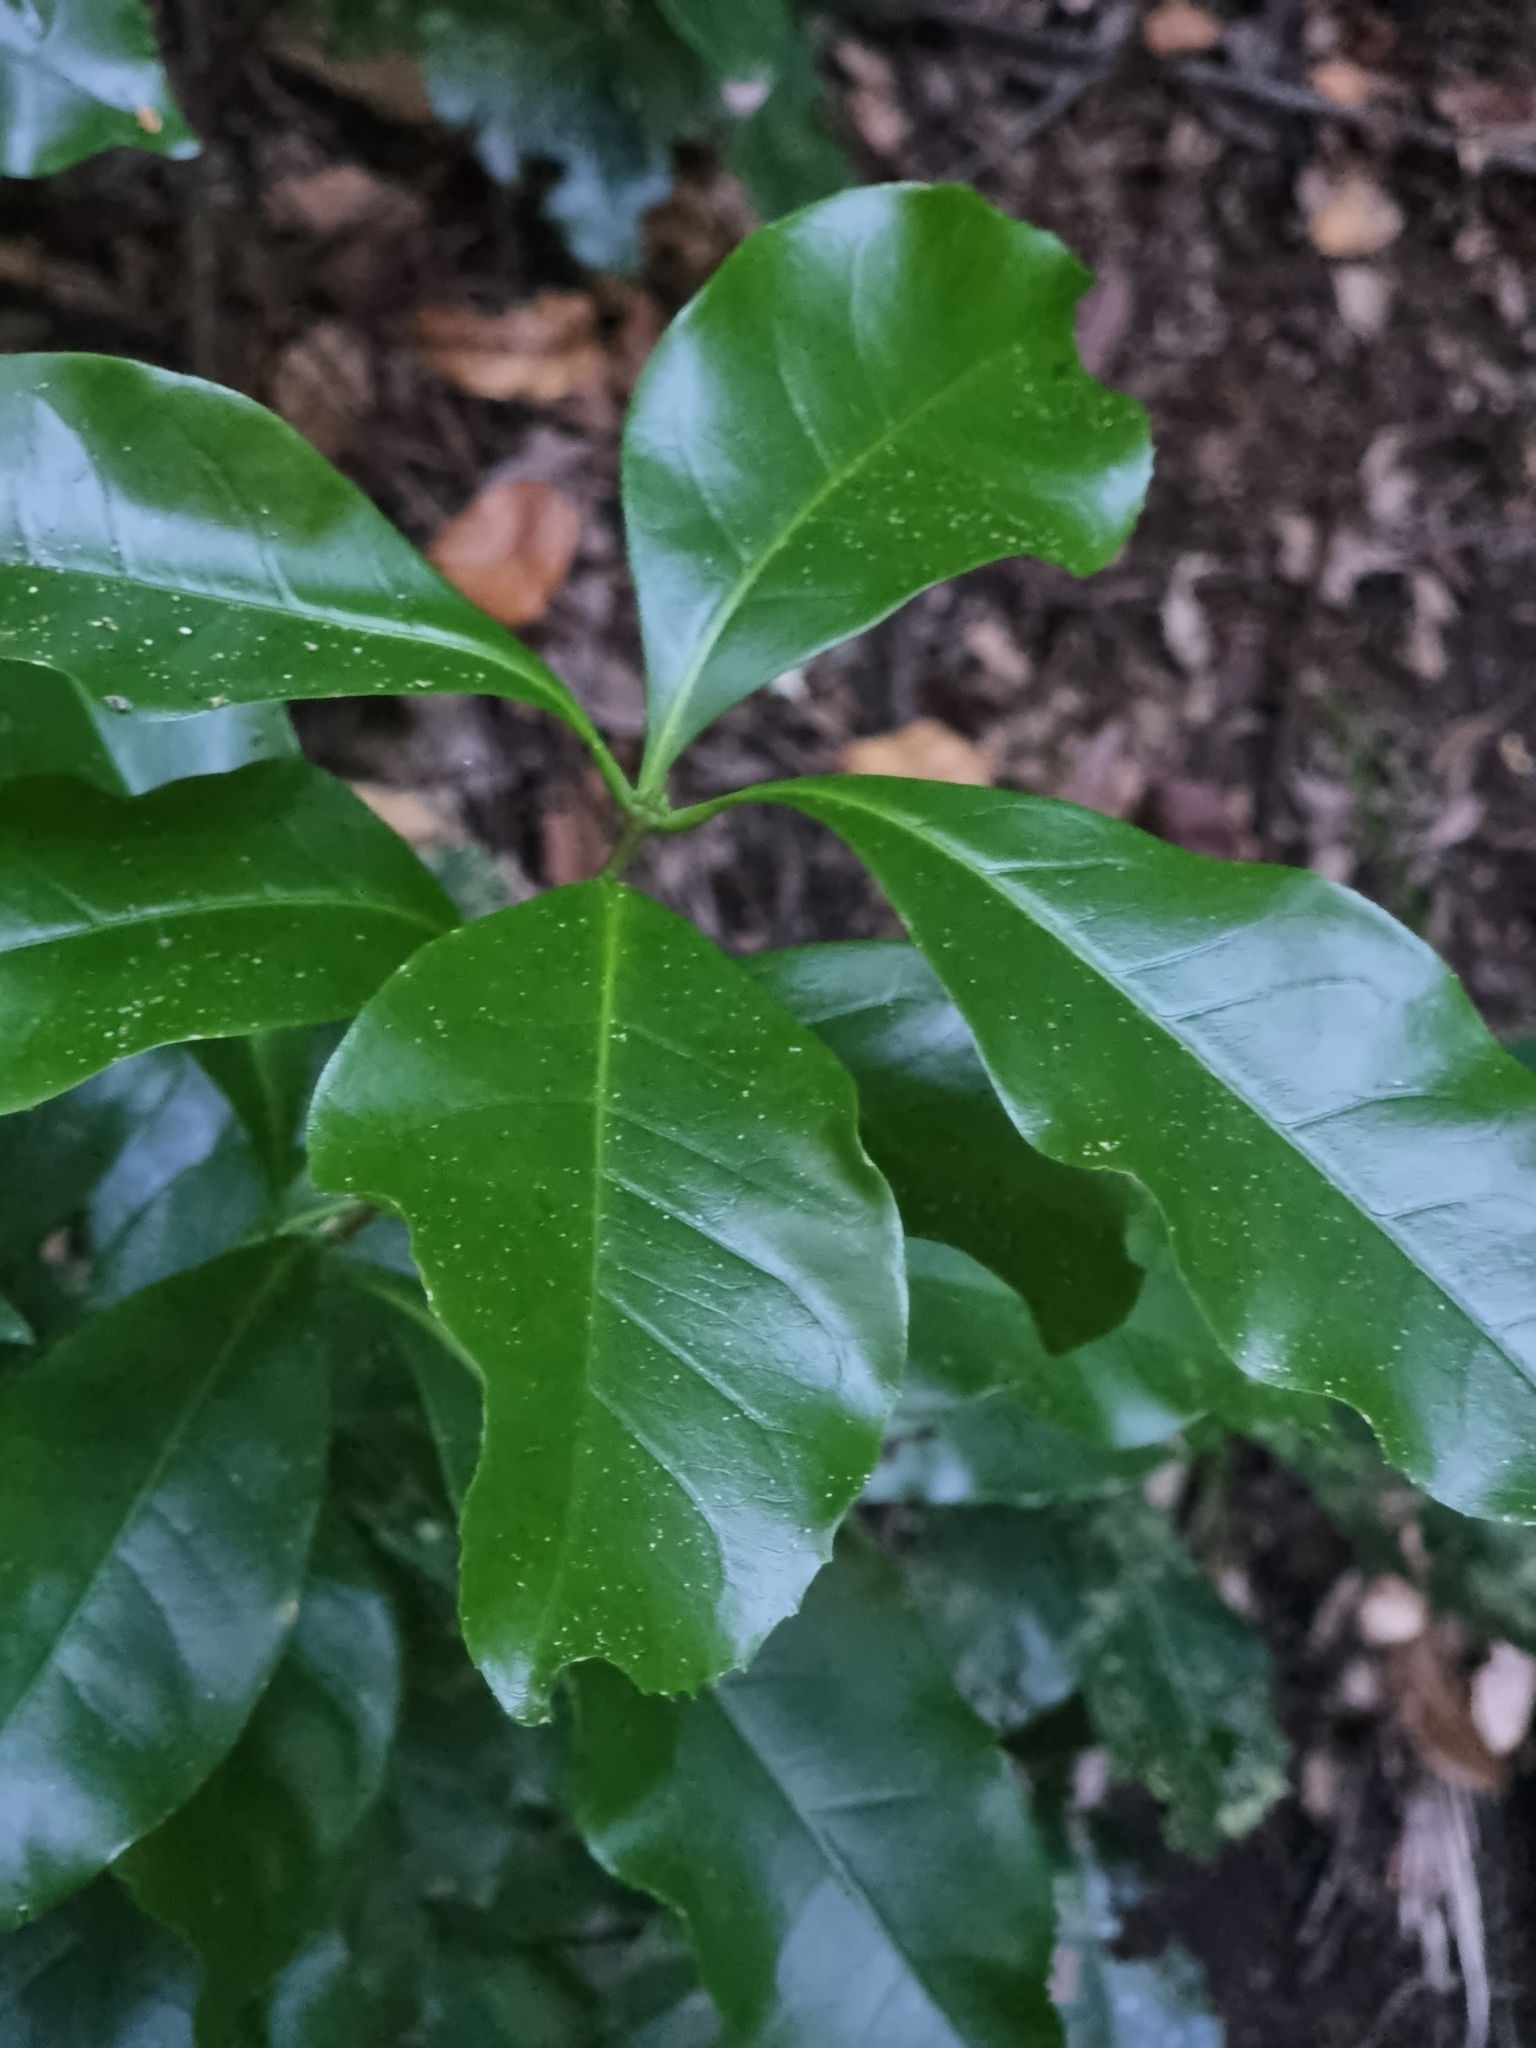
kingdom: Plantae
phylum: Tracheophyta
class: Magnoliopsida
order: Lamiales
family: Oleaceae
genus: Picconia
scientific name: Picconia excelsa
